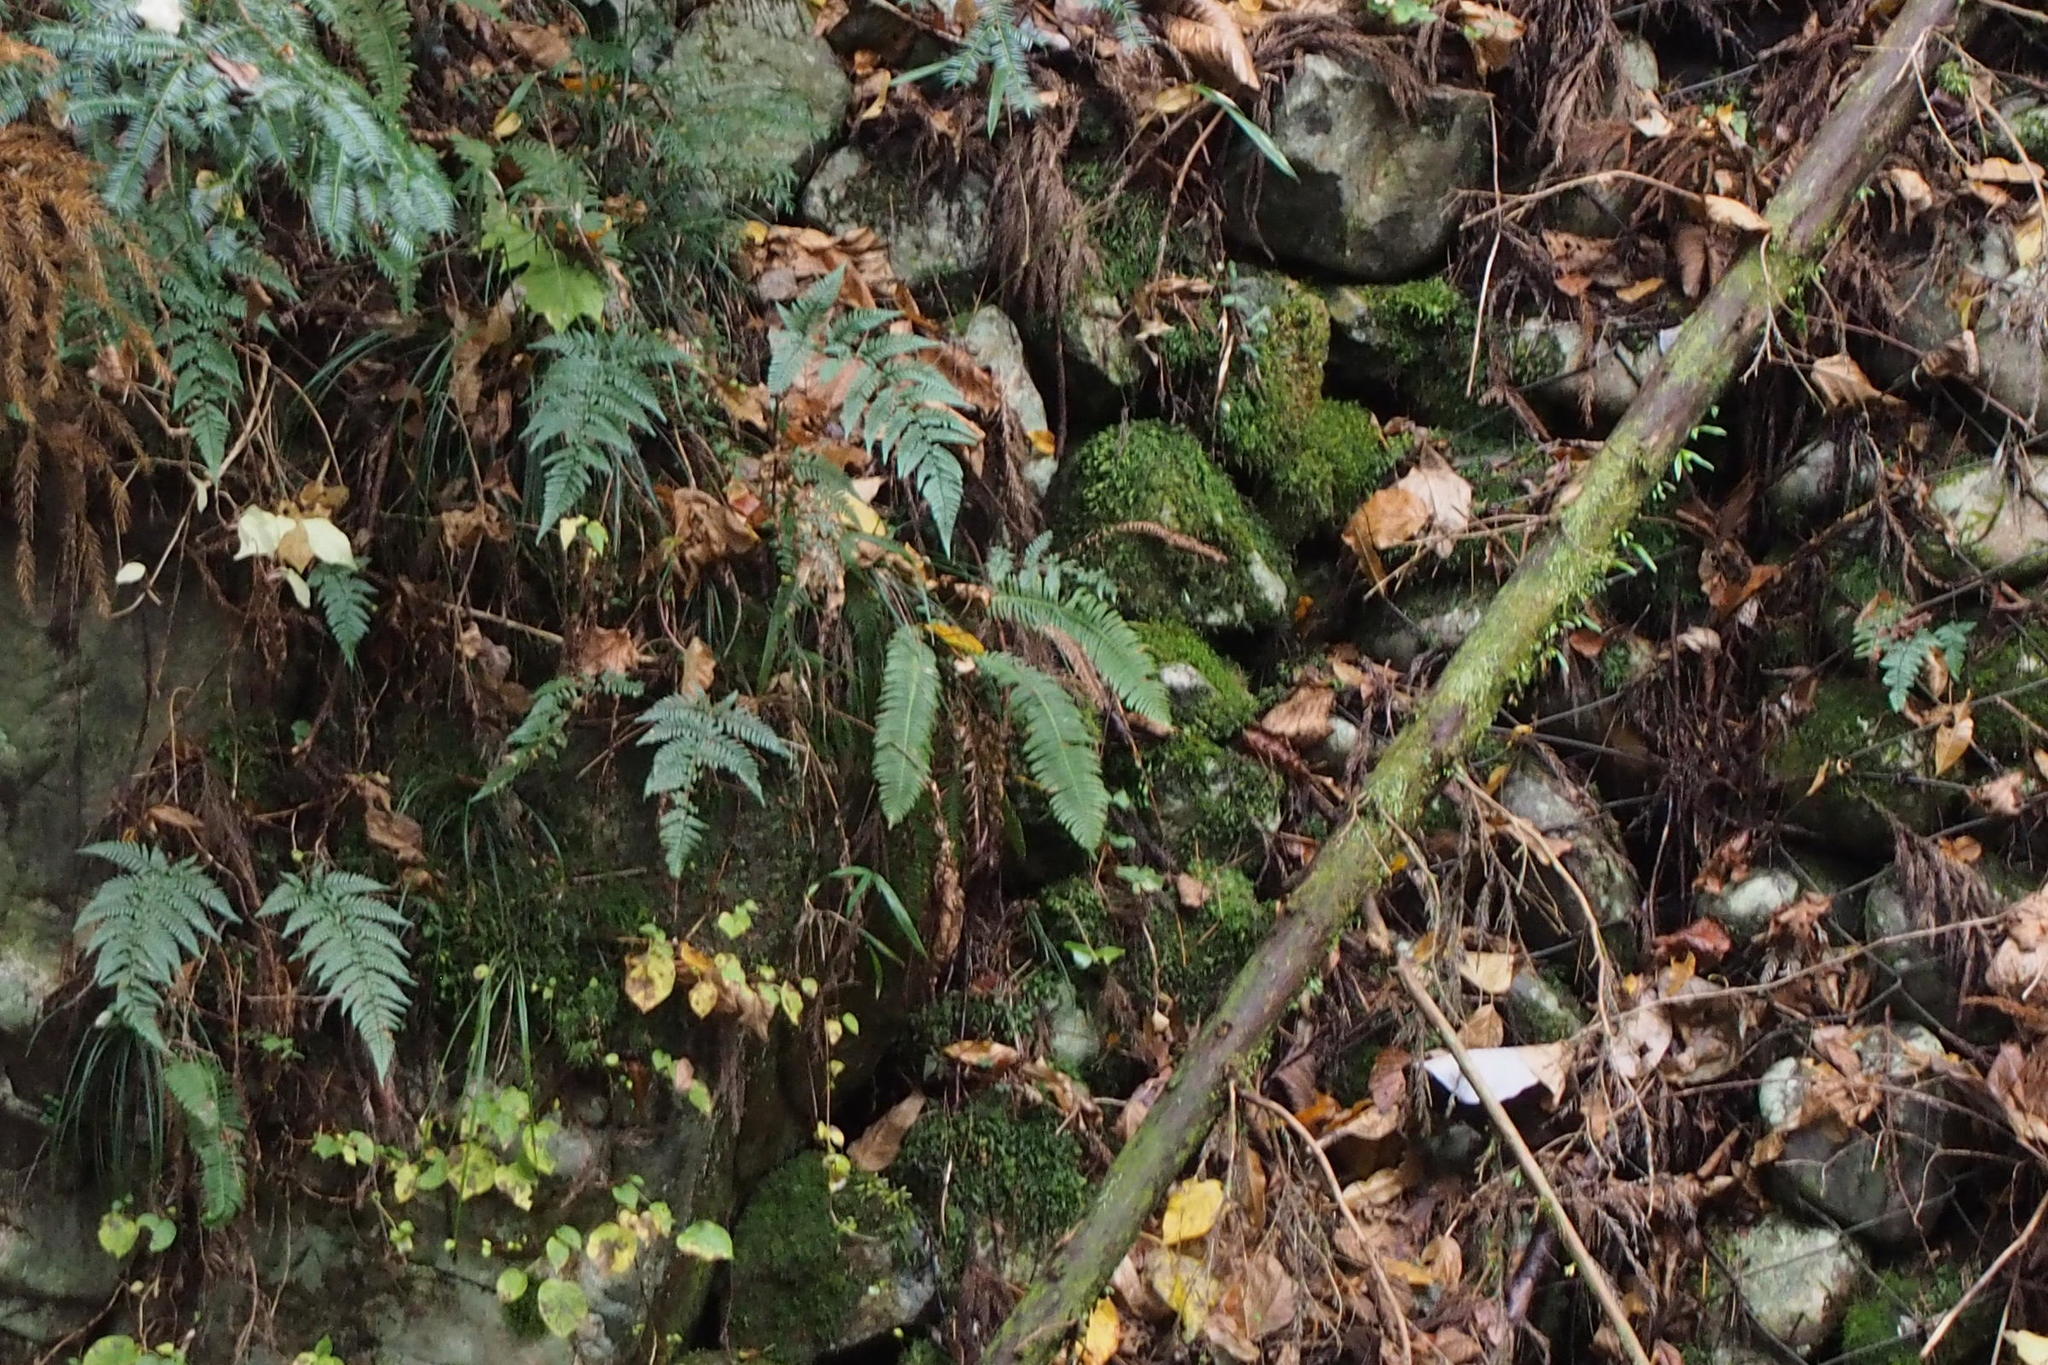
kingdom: Plantae
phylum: Tracheophyta
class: Polypodiopsida
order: Polypodiales
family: Blechnaceae
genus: Spicantopsis
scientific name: Spicantopsis niponica
